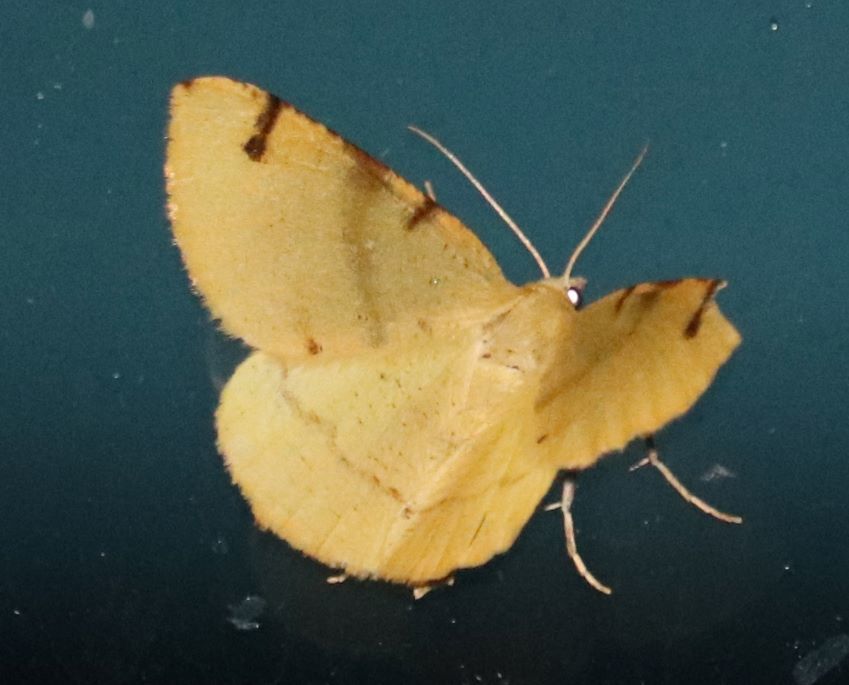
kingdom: Animalia
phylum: Arthropoda
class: Insecta
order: Lepidoptera
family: Geometridae
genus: Lhommeia
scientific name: Lhommeia subapicata
